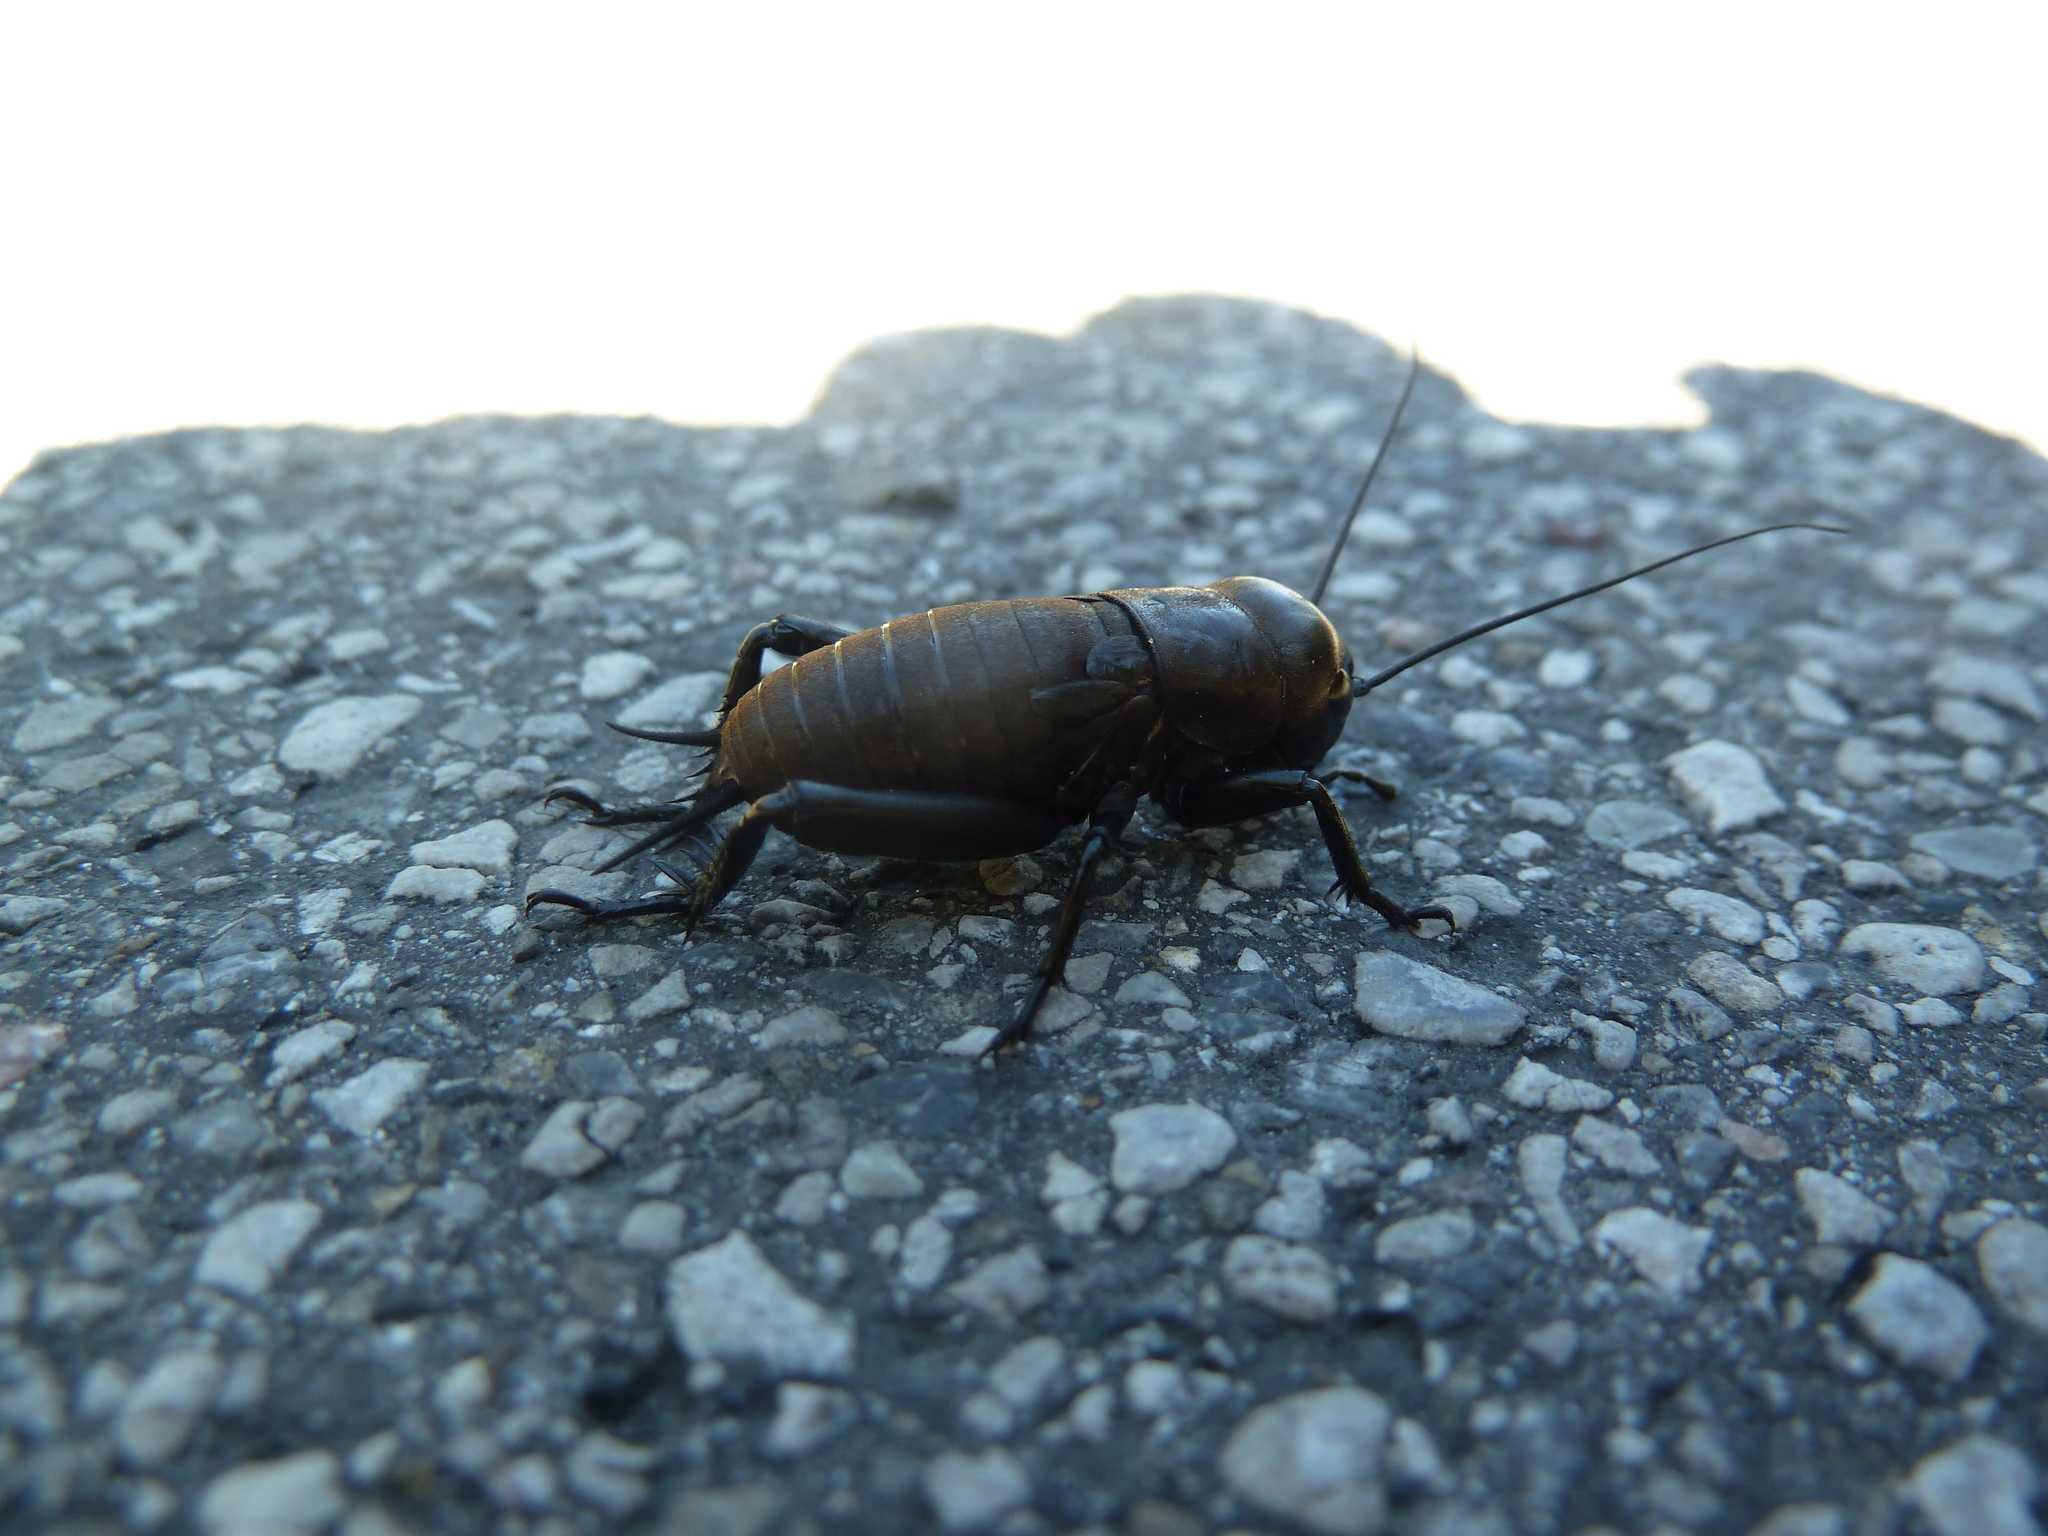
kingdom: Animalia
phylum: Arthropoda
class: Insecta
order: Orthoptera
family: Gryllidae
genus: Gryllus
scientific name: Gryllus campestris
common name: Field cricket
